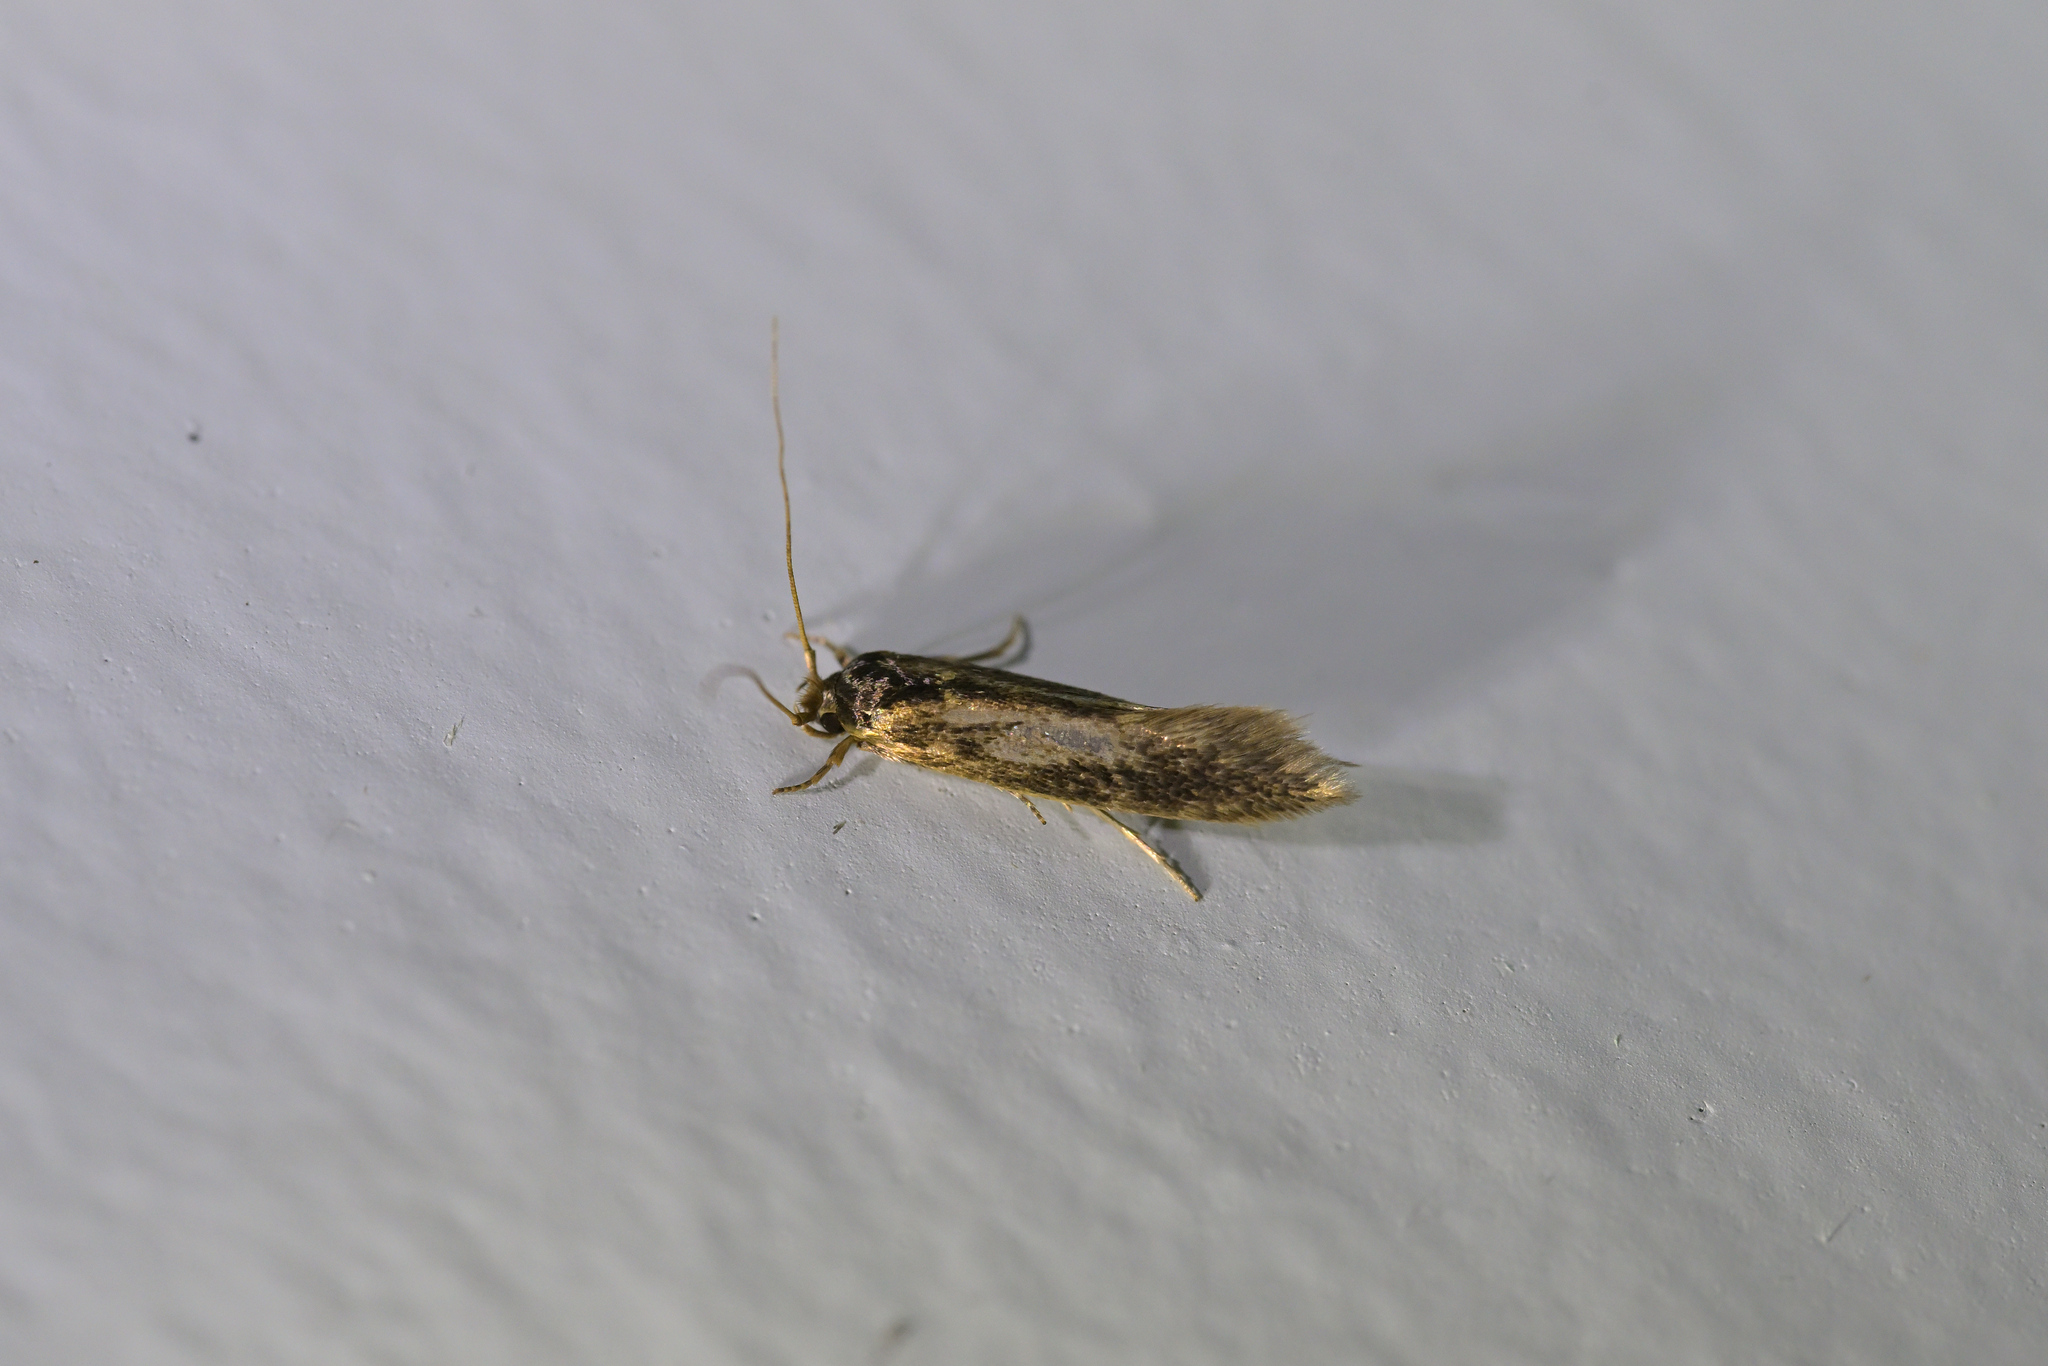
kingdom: Animalia
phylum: Arthropoda
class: Insecta
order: Lepidoptera
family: Tineidae
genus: Opogona
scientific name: Opogona omoscopa
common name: Moth
